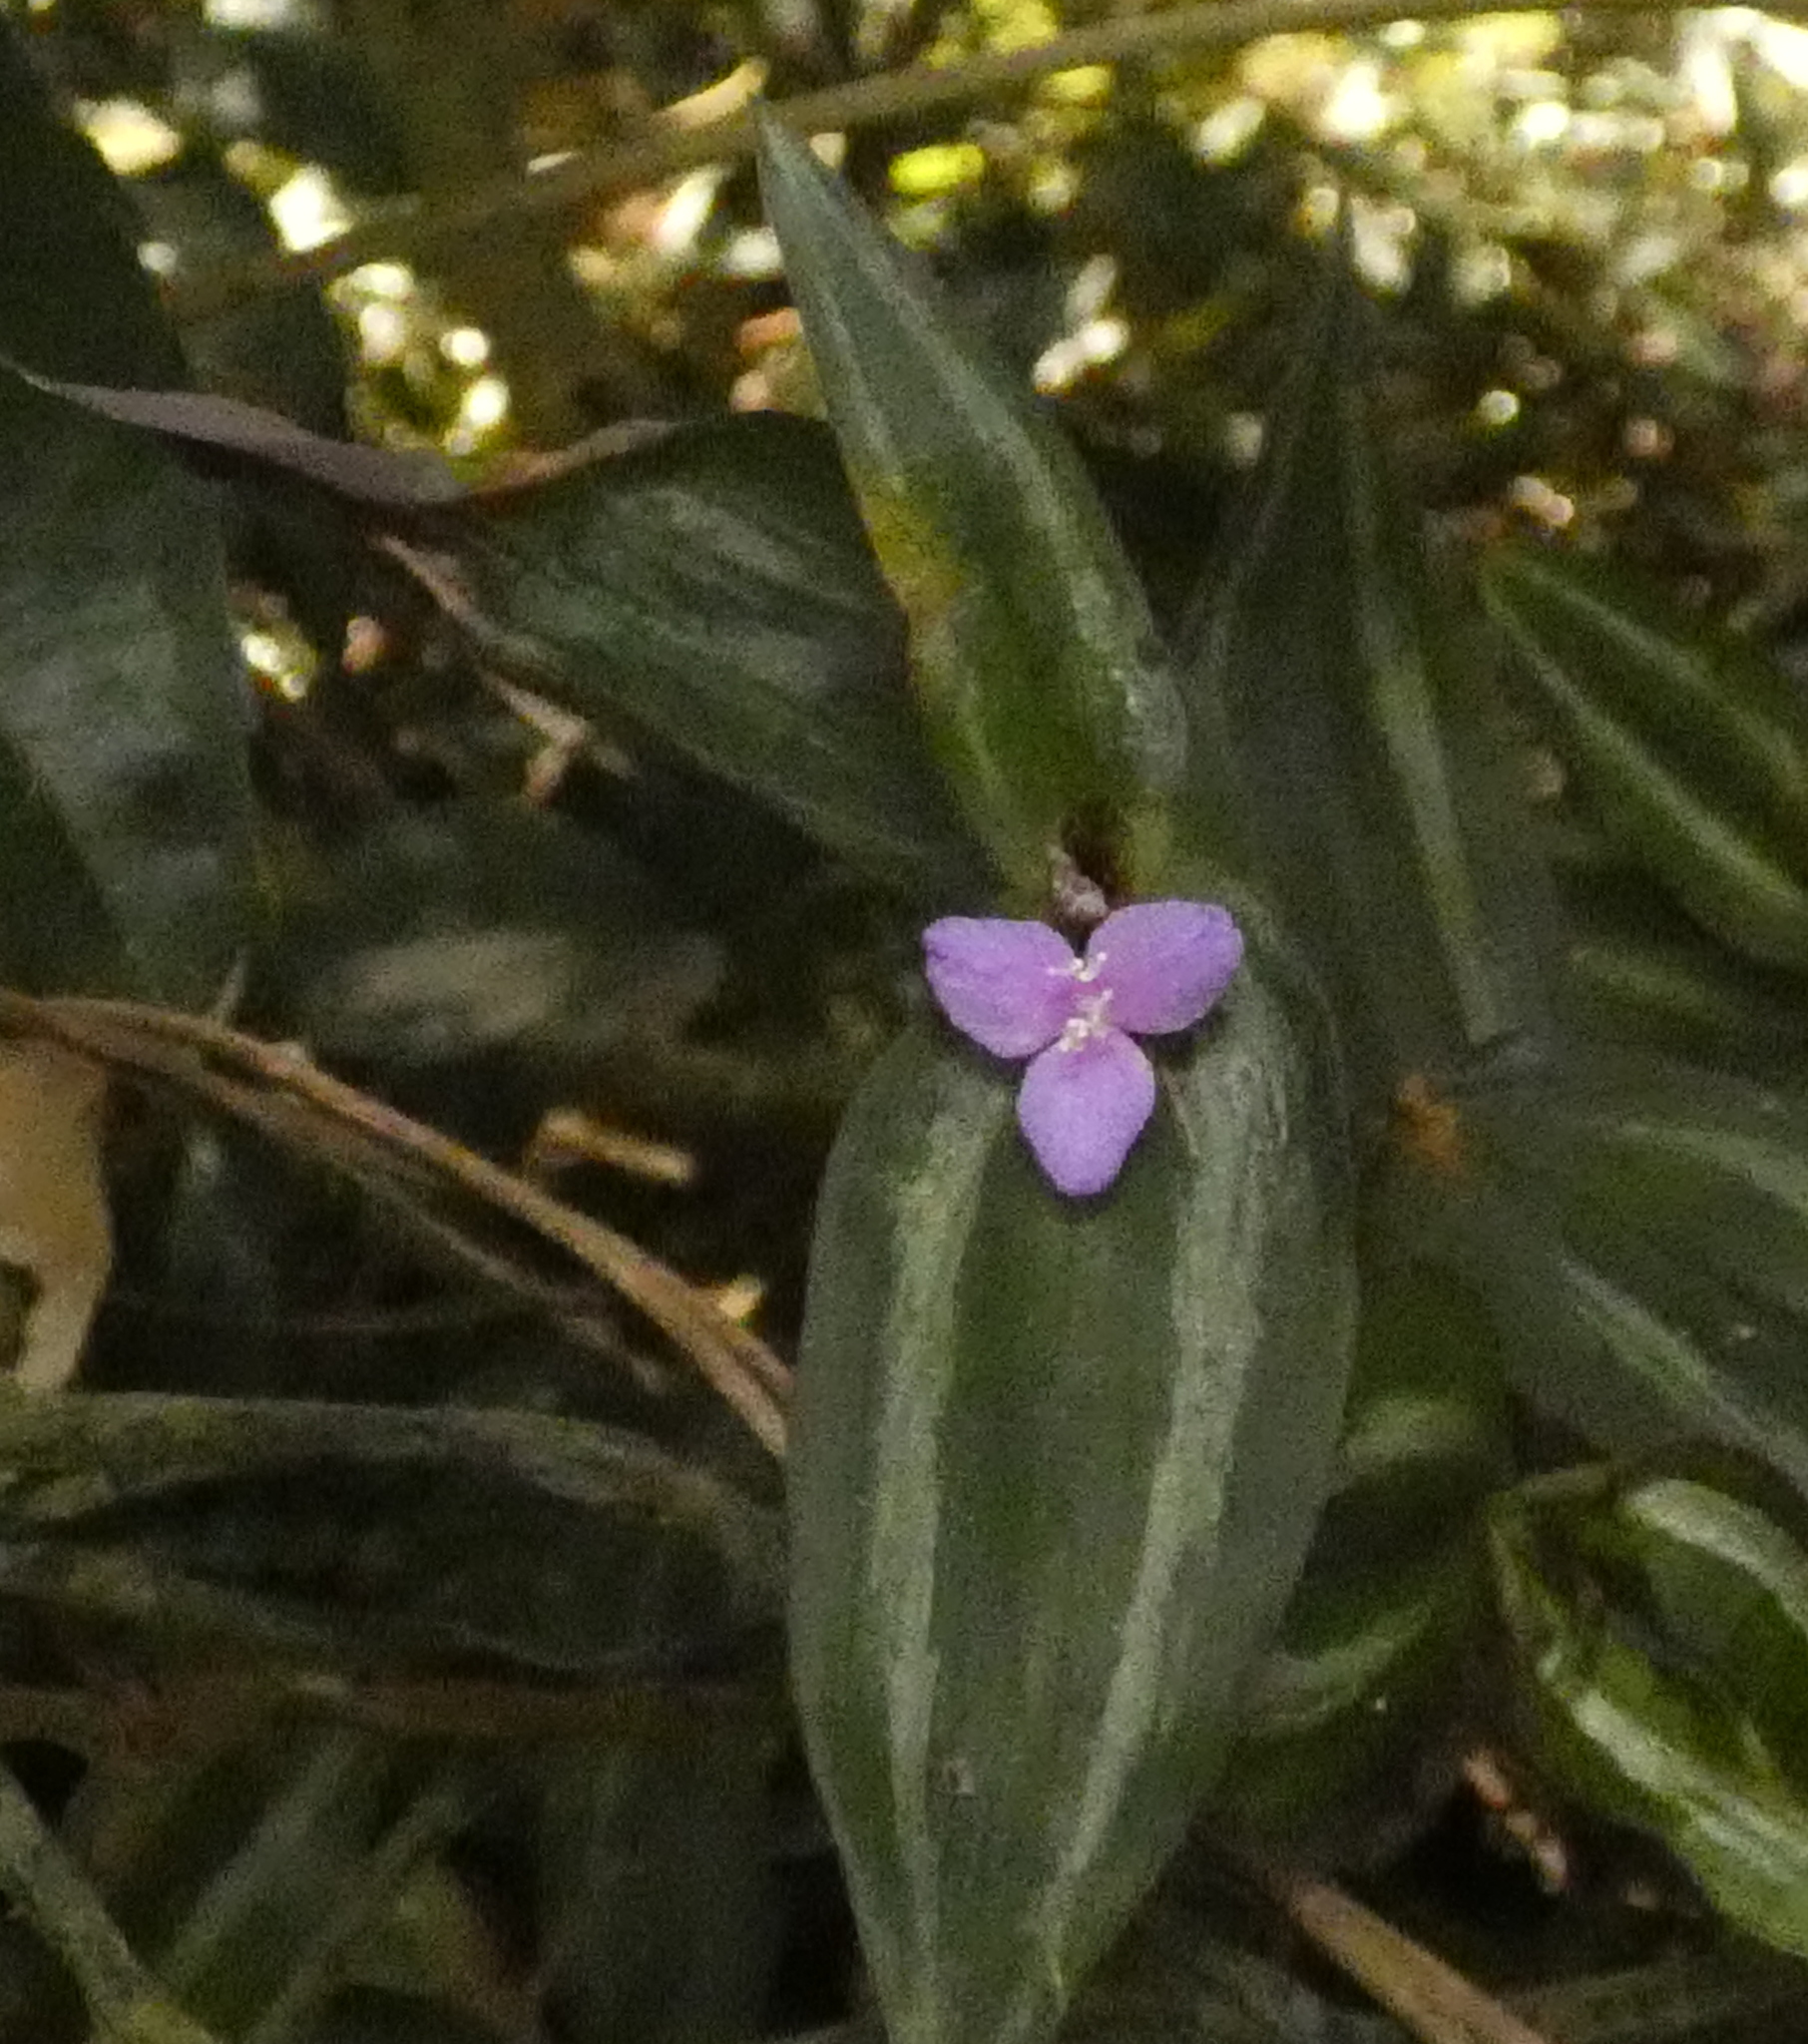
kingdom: Plantae
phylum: Tracheophyta
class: Liliopsida
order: Commelinales
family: Commelinaceae
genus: Tradescantia
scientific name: Tradescantia zebrina
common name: Inchplant
